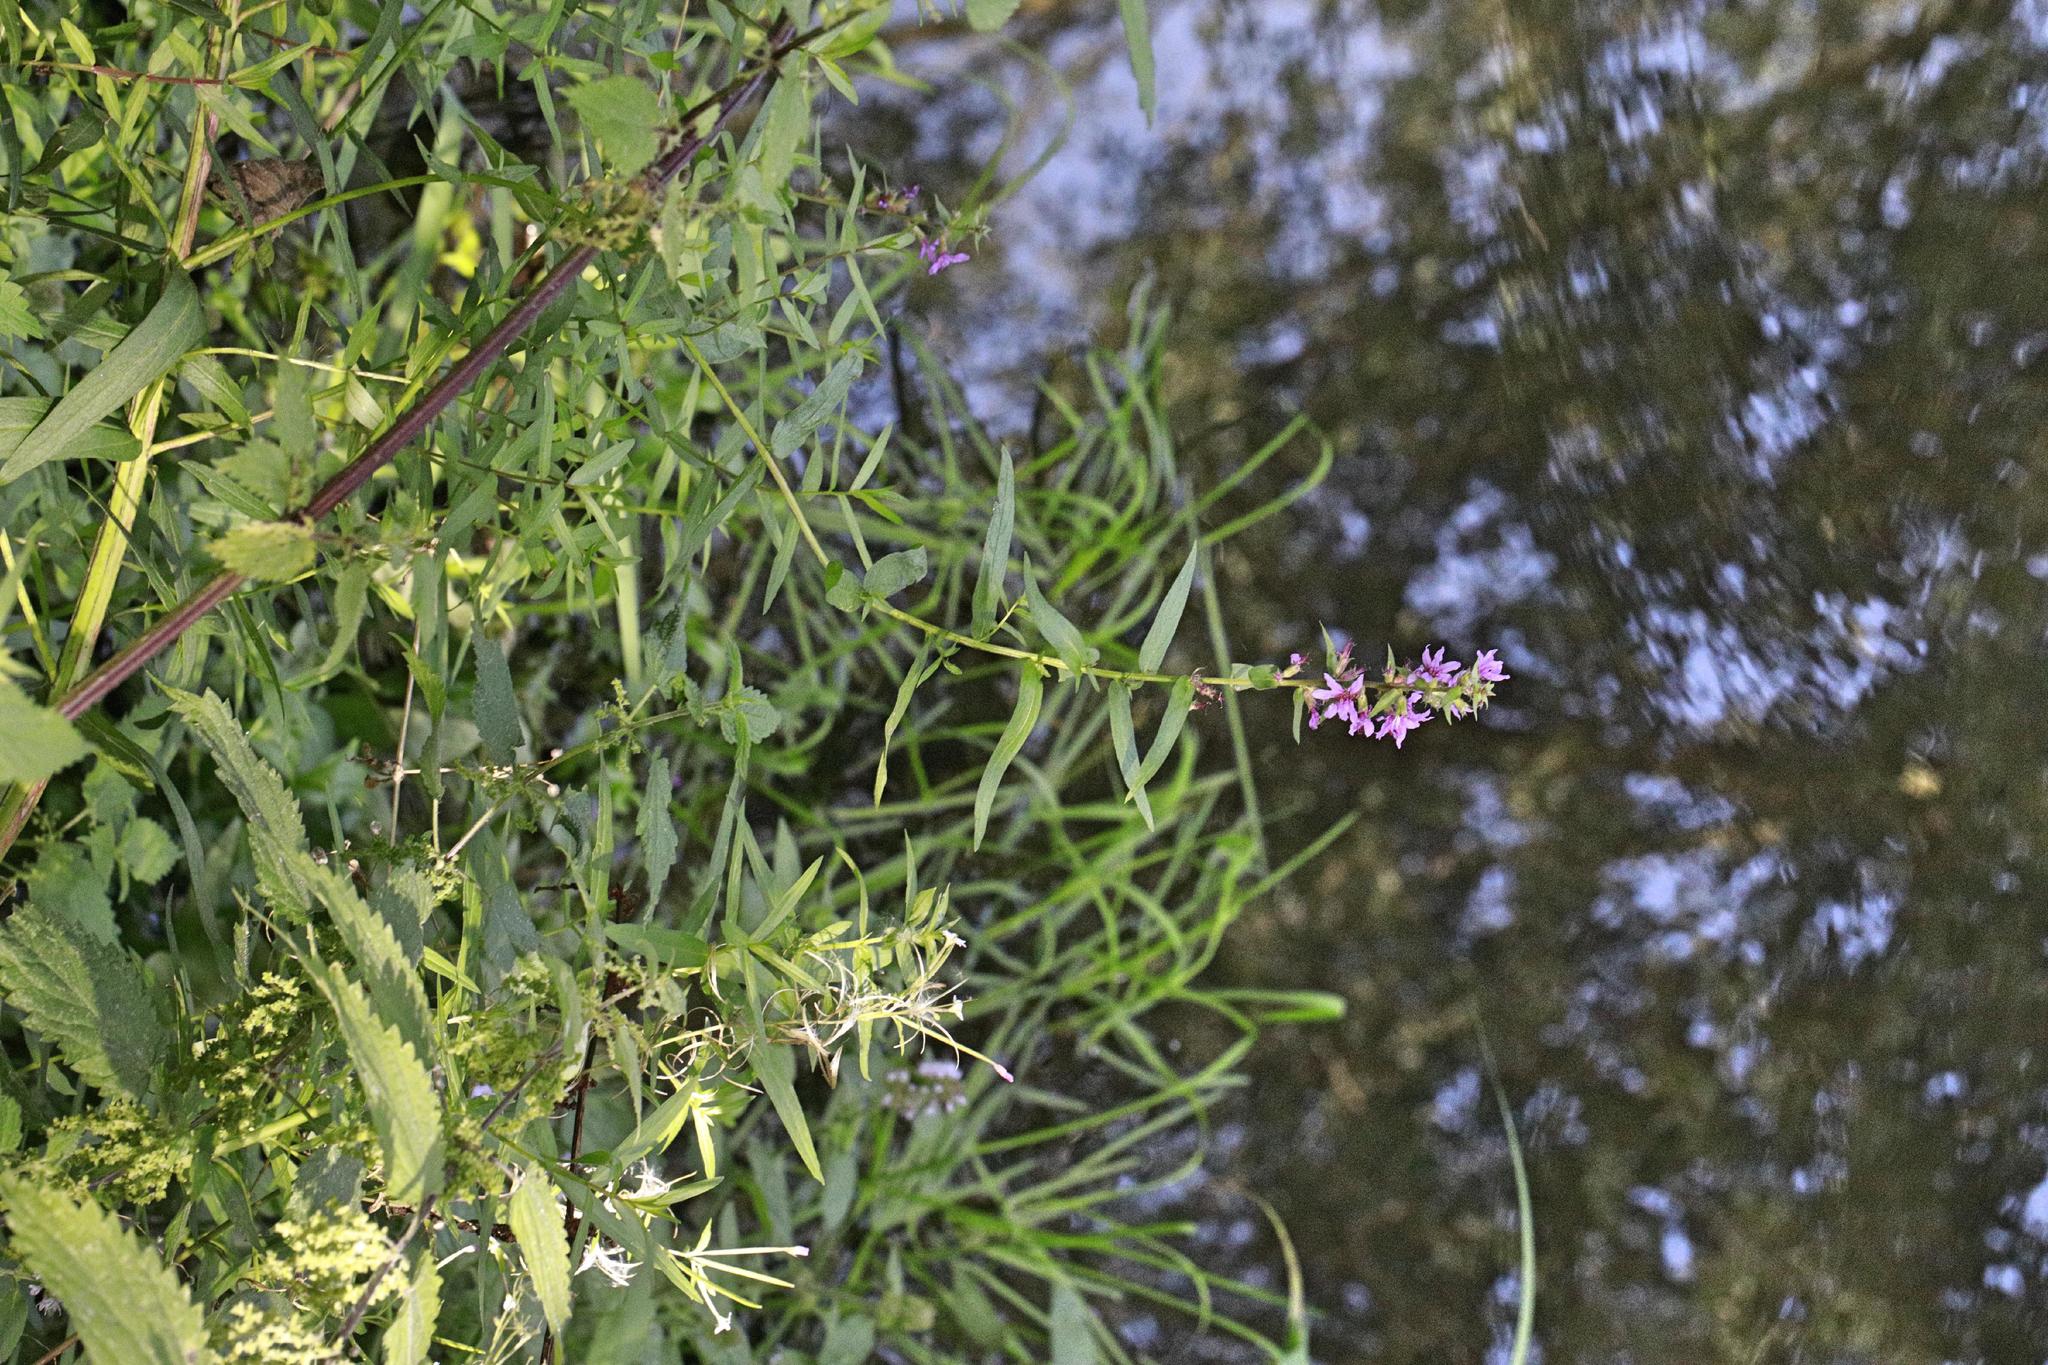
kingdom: Plantae
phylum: Tracheophyta
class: Magnoliopsida
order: Myrtales
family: Lythraceae
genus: Lythrum
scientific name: Lythrum salicaria
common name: Purple loosestrife
